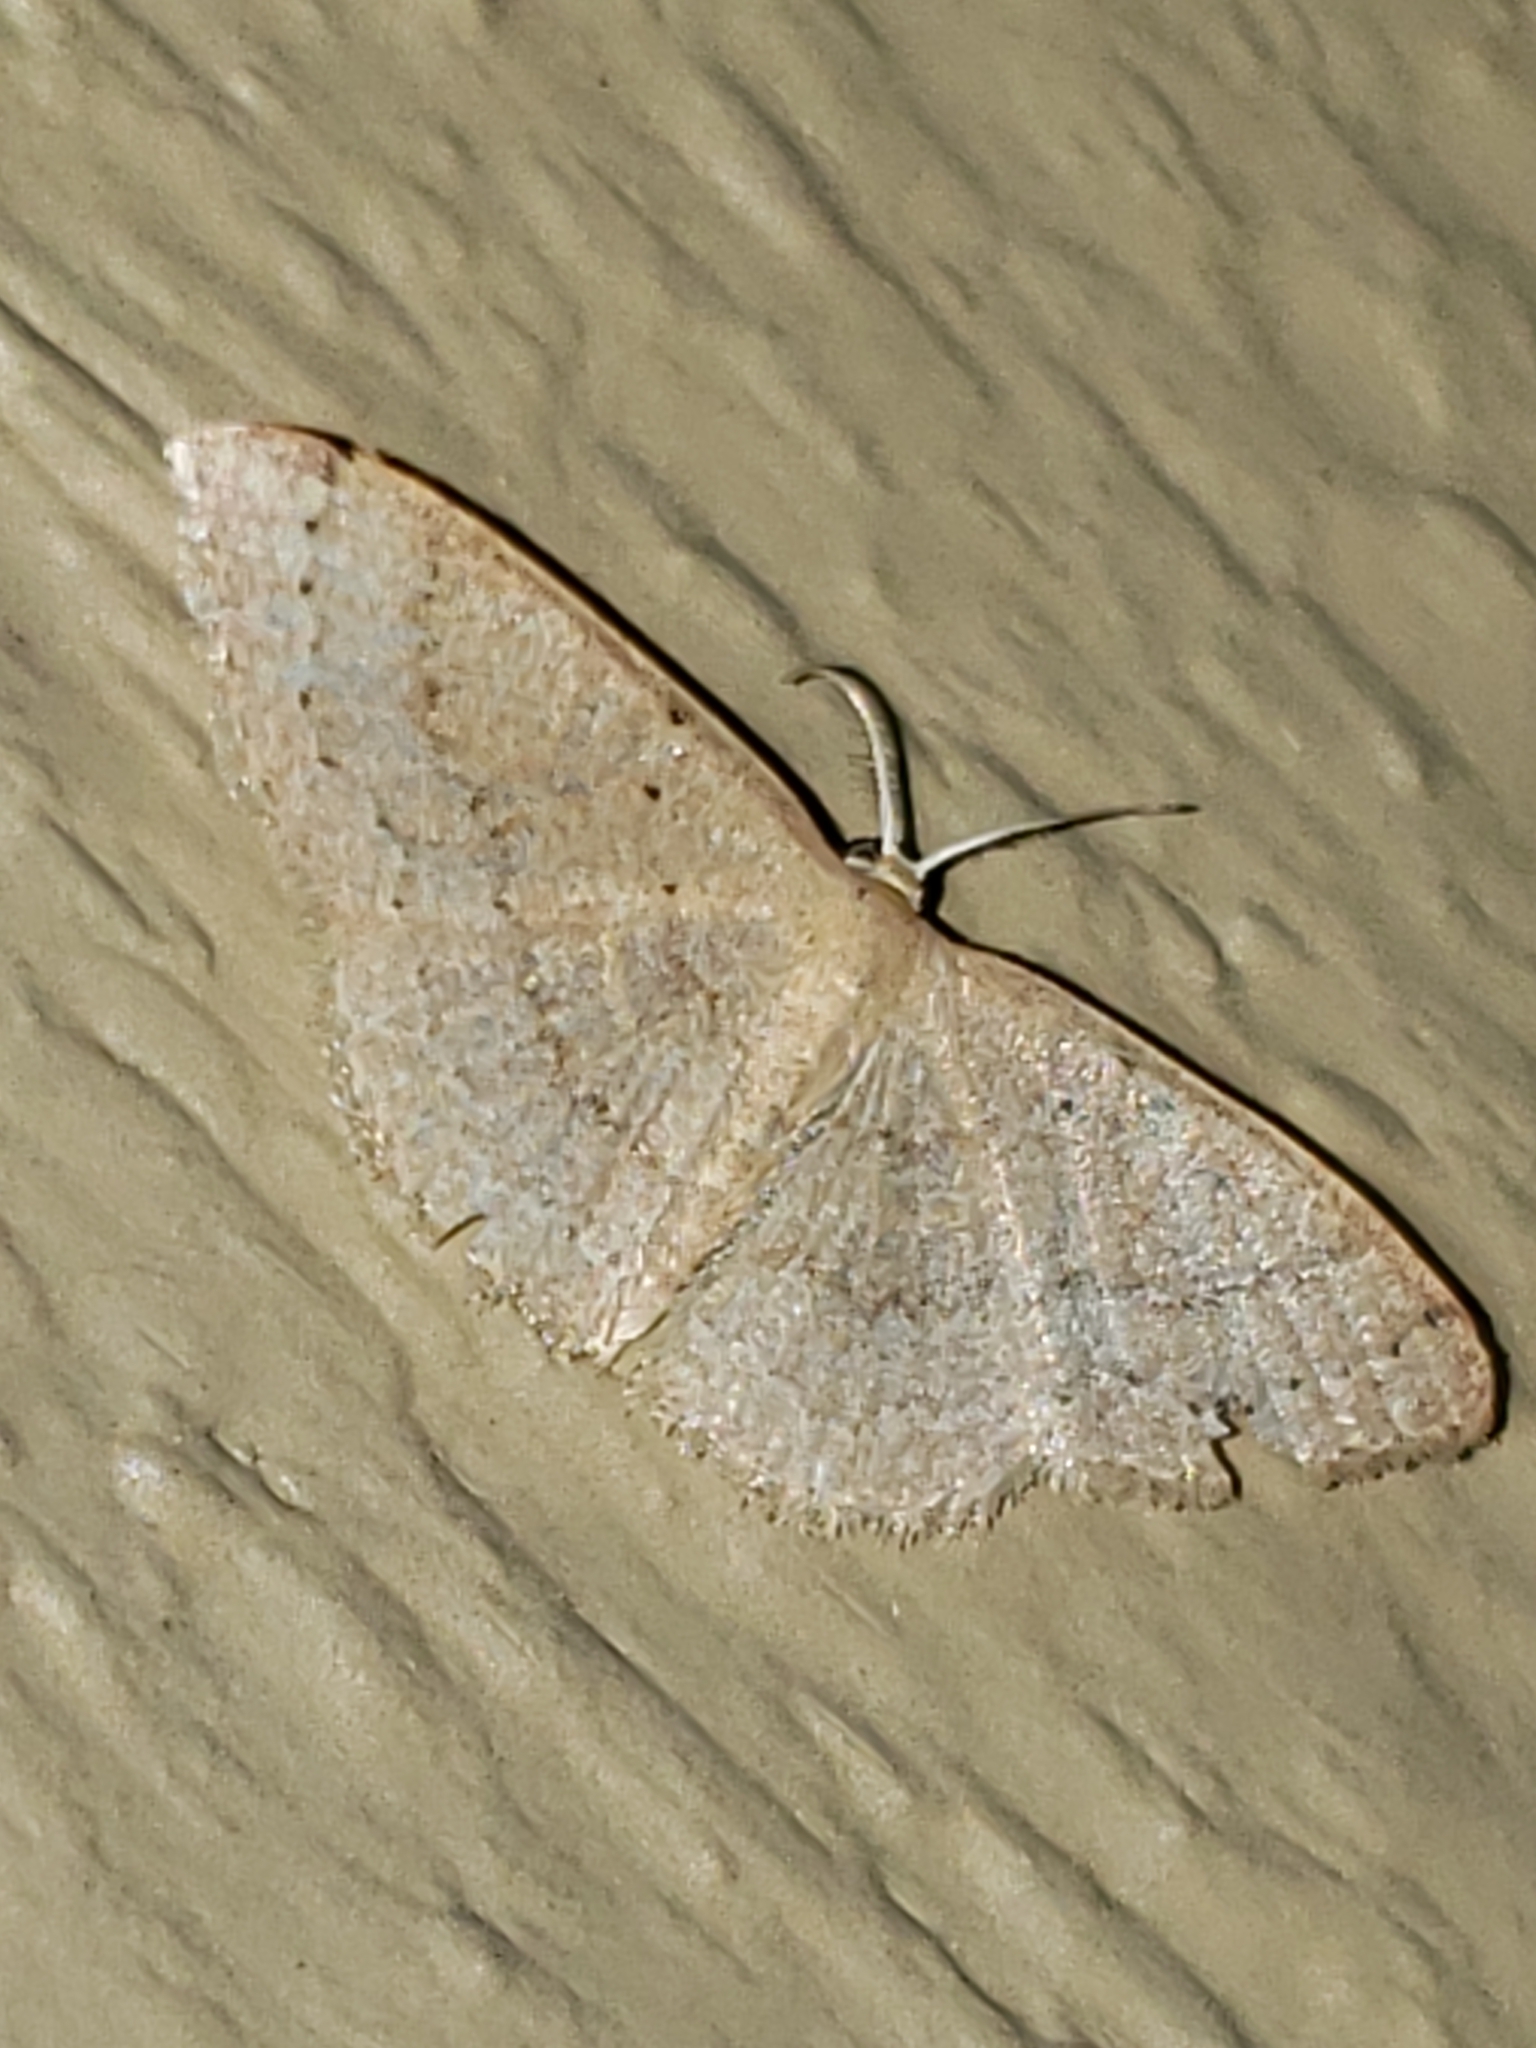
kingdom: Animalia
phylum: Arthropoda
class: Insecta
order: Lepidoptera
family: Geometridae
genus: Pleuroprucha
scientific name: Pleuroprucha insulsaria
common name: Common tan wave
